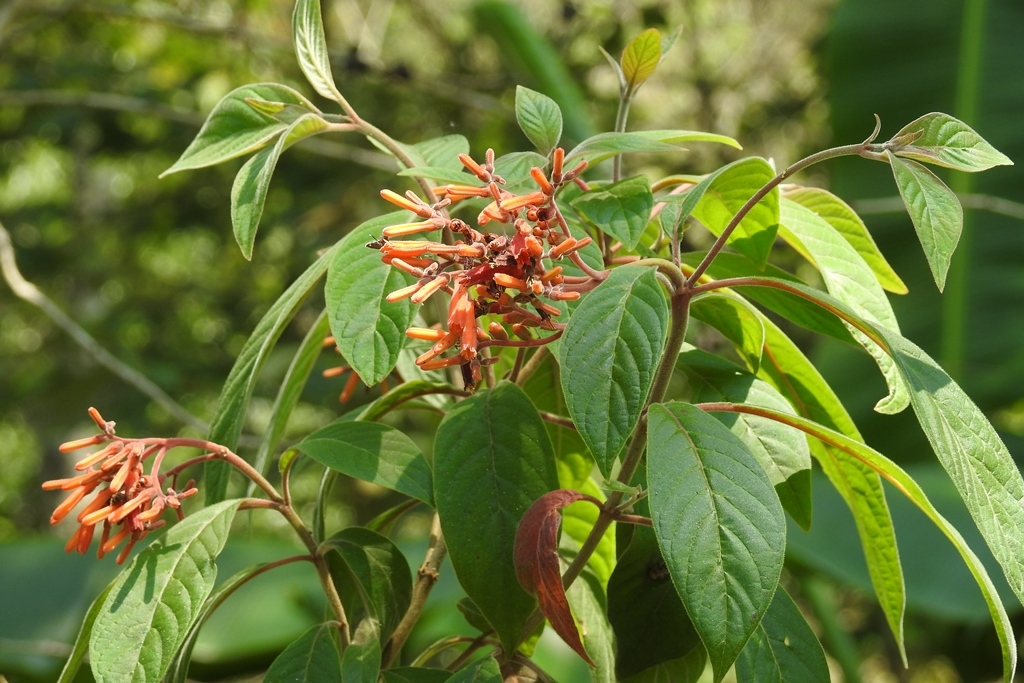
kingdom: Plantae
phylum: Tracheophyta
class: Magnoliopsida
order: Gentianales
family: Rubiaceae
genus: Hamelia
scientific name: Hamelia patens
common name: Redhead
